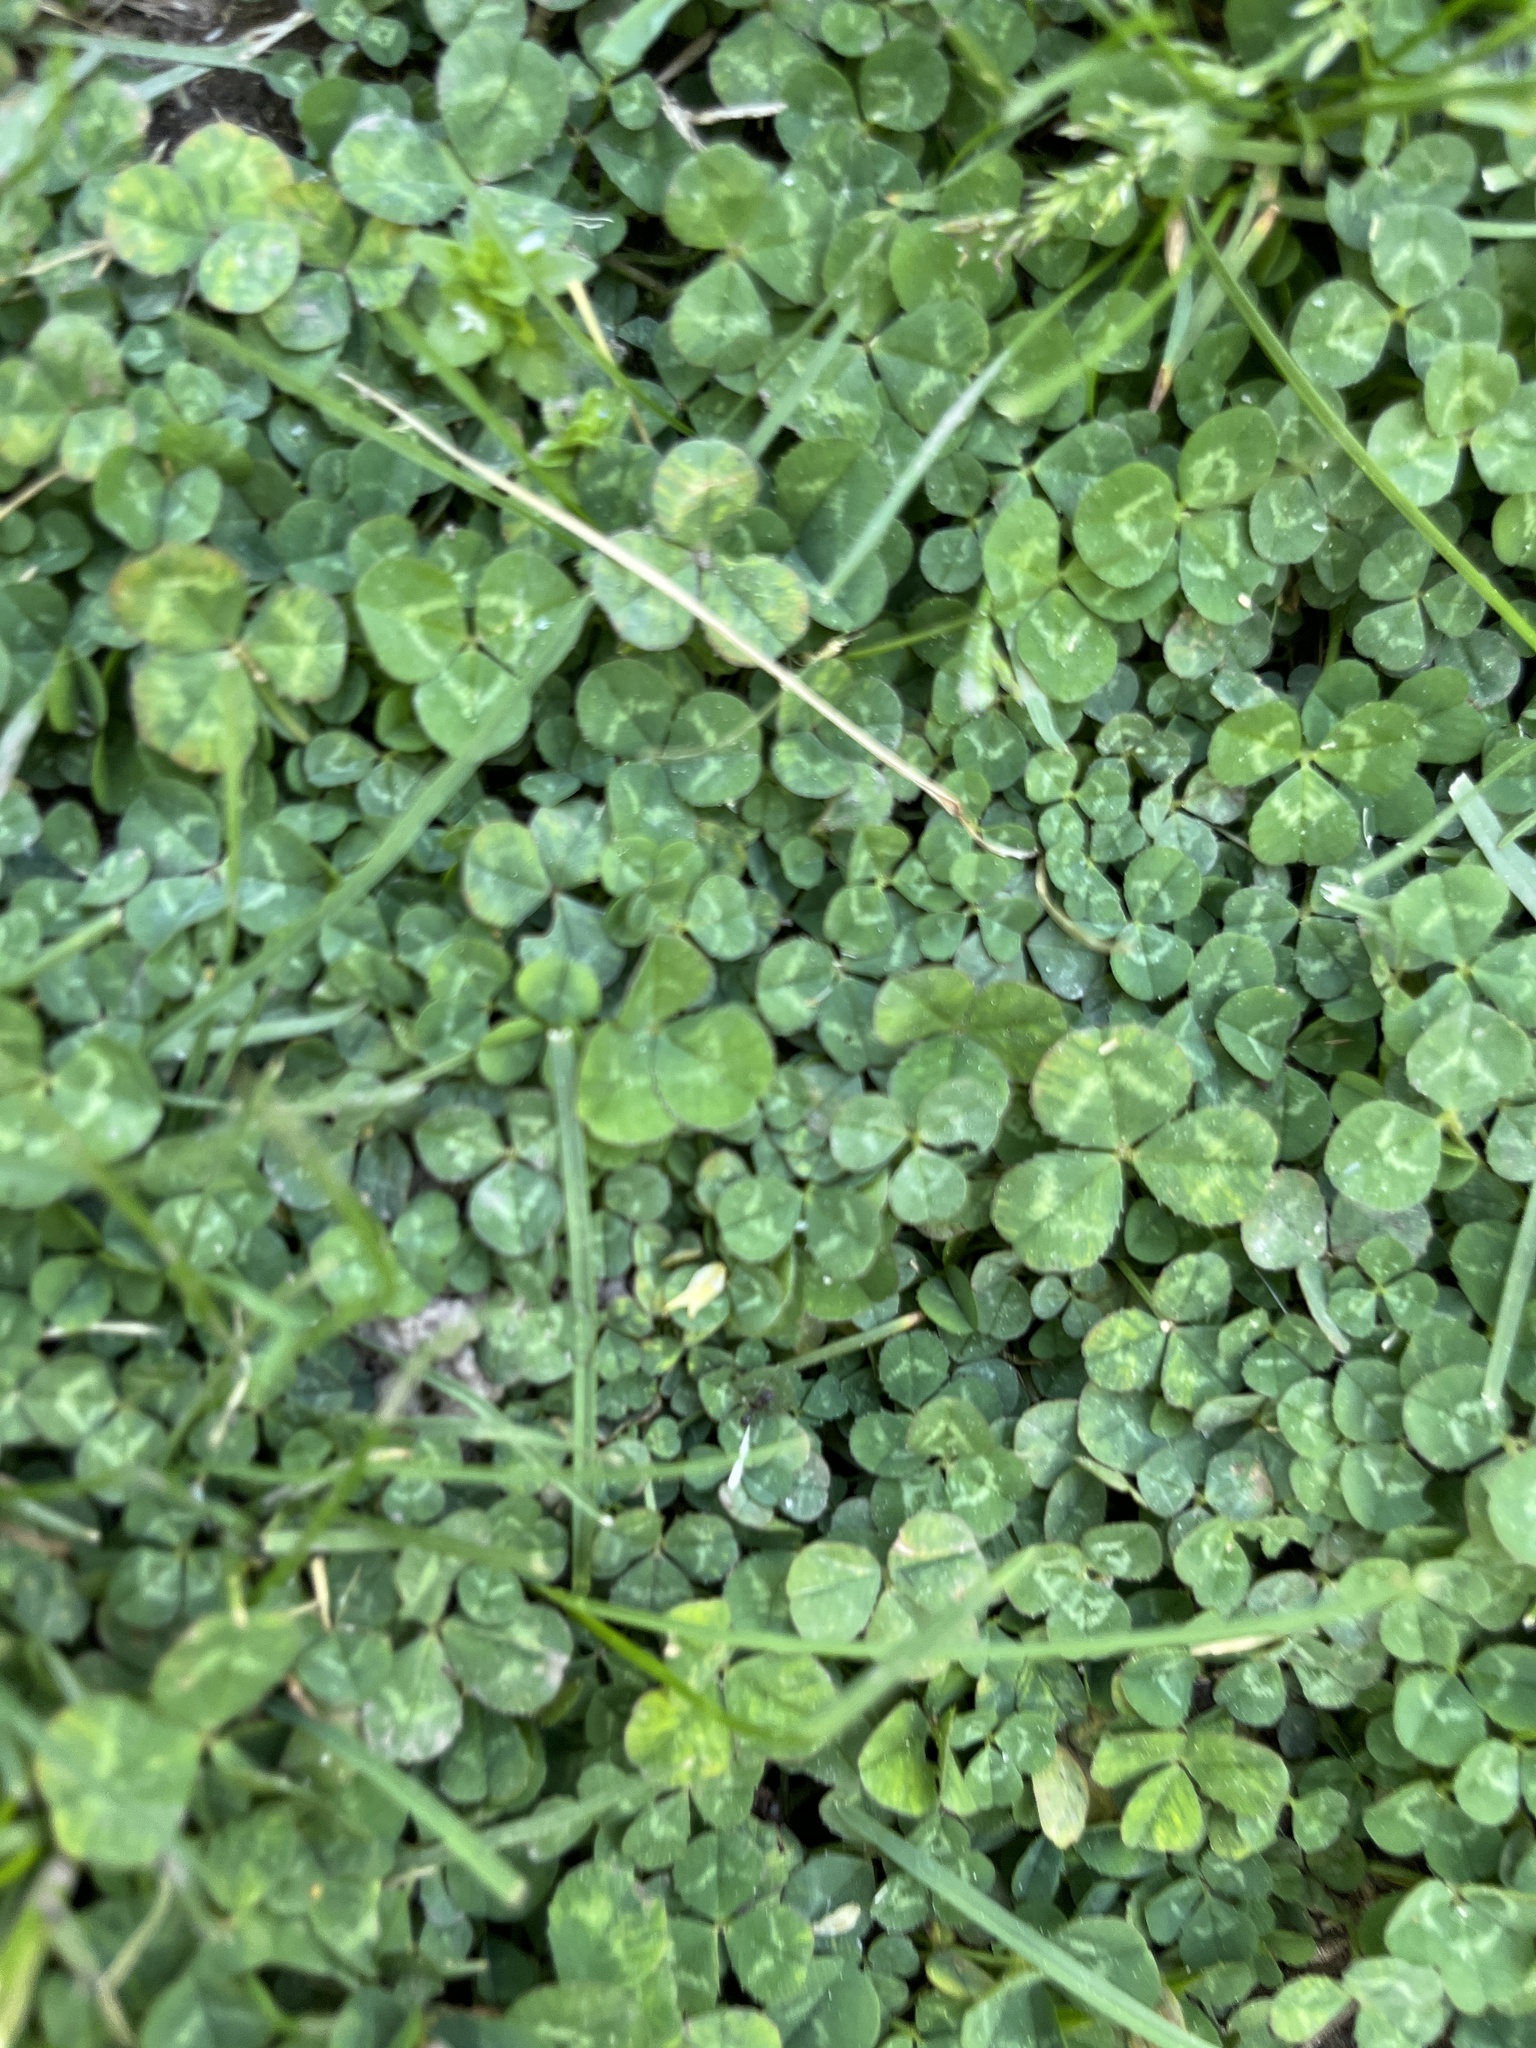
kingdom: Plantae
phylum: Tracheophyta
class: Magnoliopsida
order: Fabales
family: Fabaceae
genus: Trifolium
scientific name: Trifolium repens
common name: White clover
